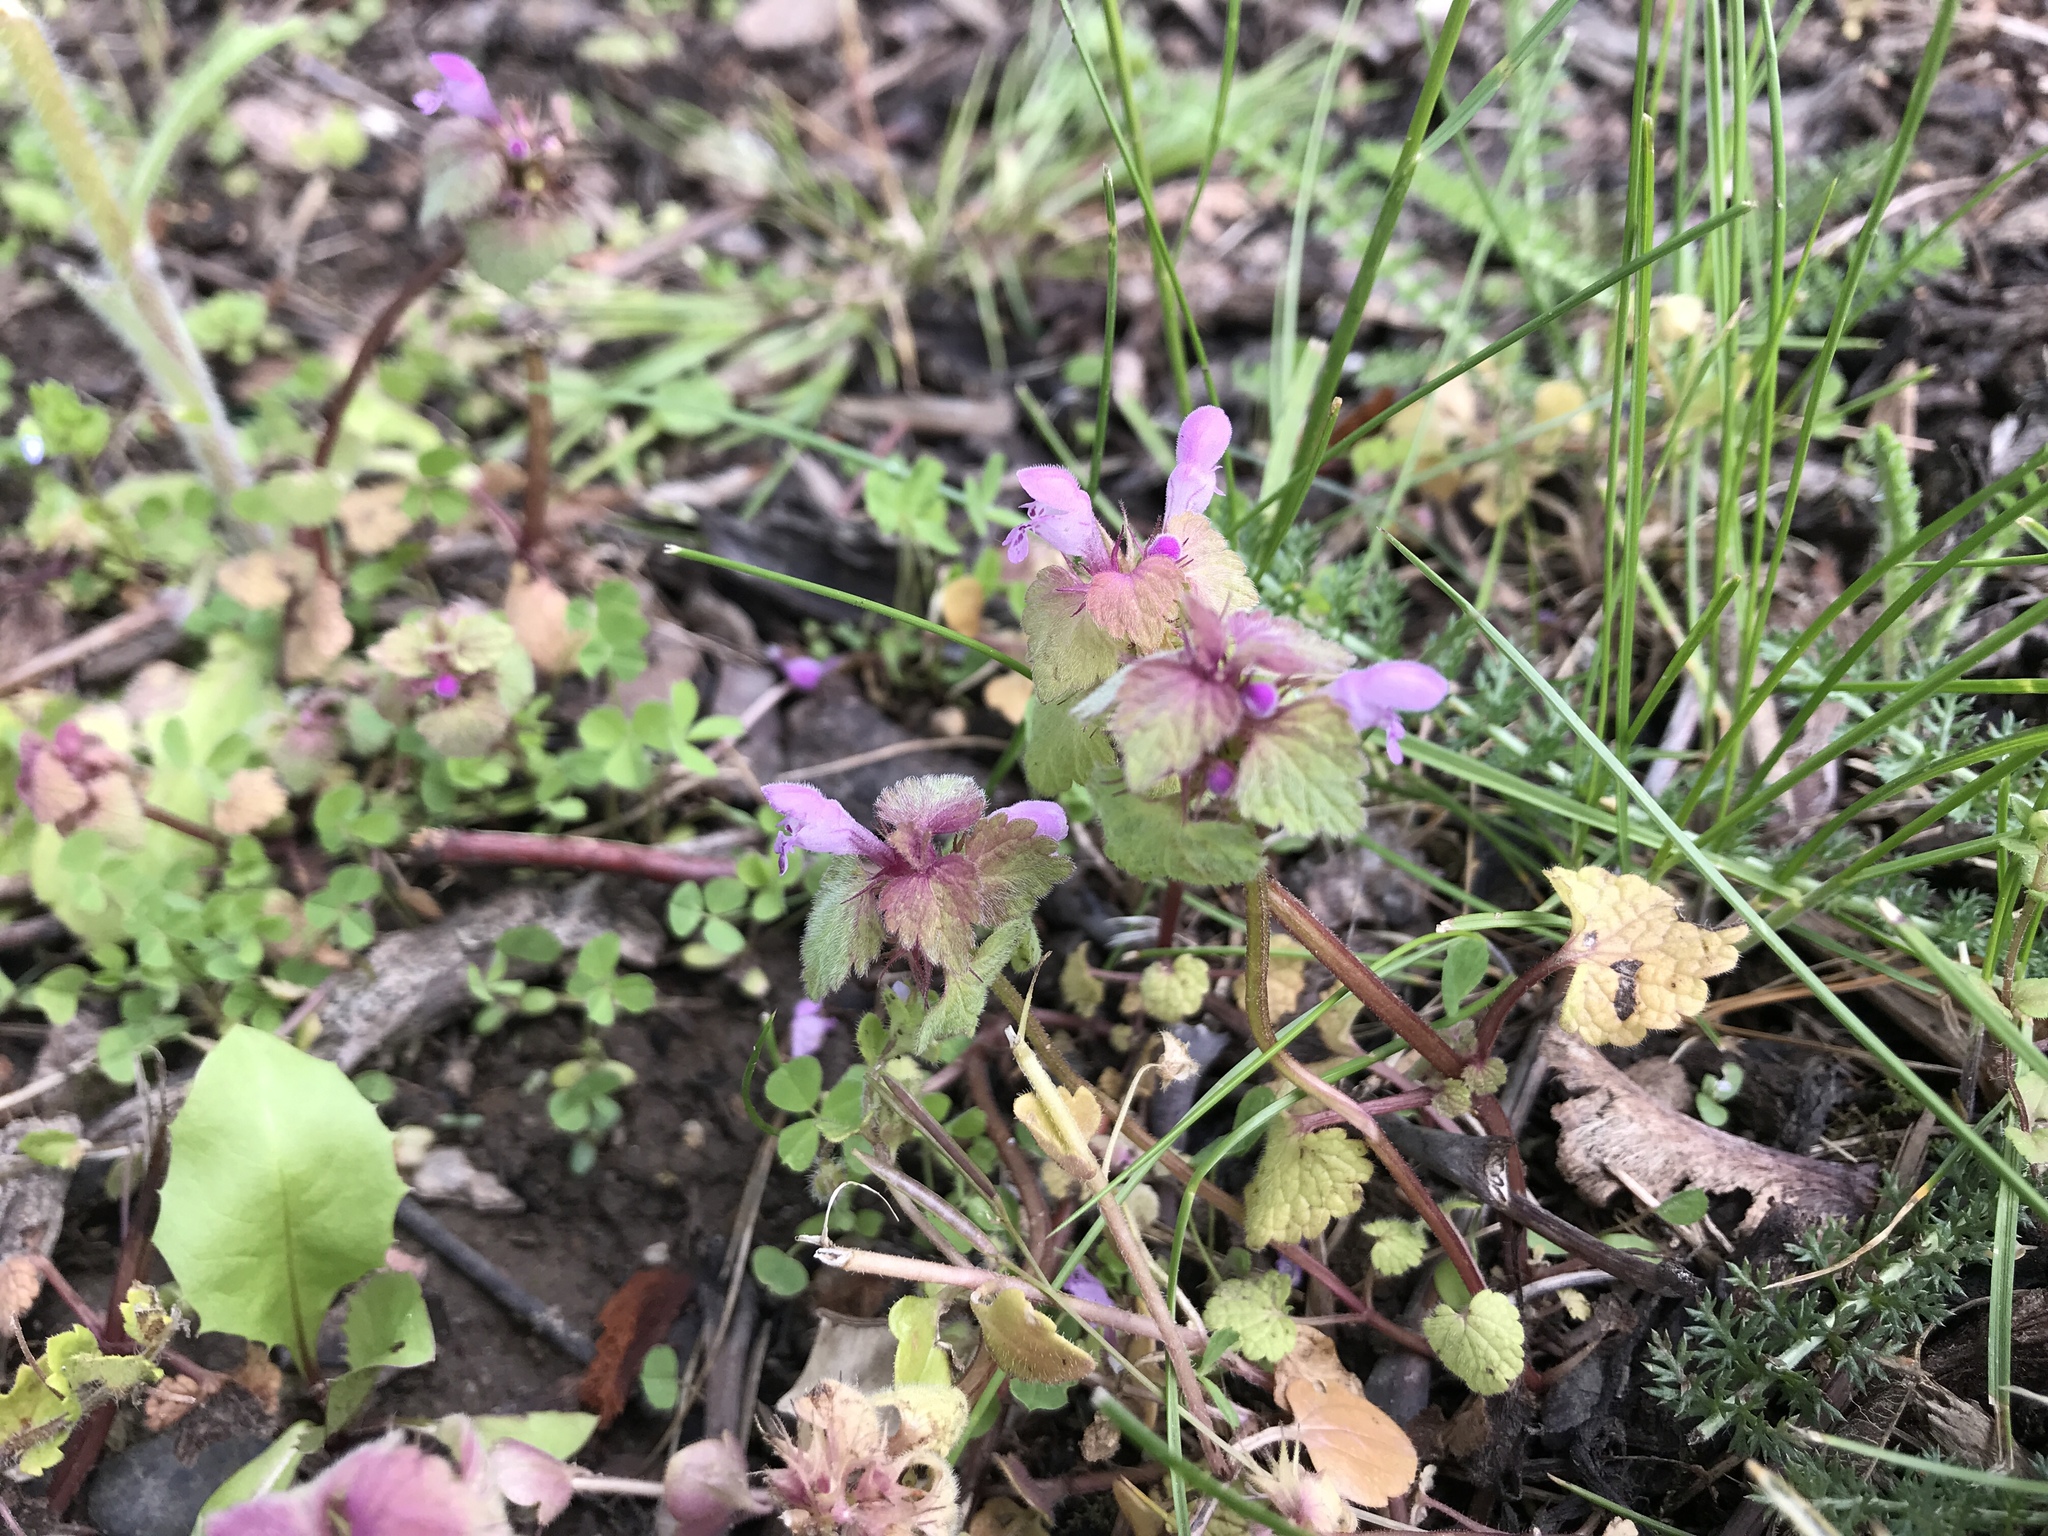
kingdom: Plantae
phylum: Tracheophyta
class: Magnoliopsida
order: Lamiales
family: Lamiaceae
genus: Lamium
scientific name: Lamium purpureum
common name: Red dead-nettle
